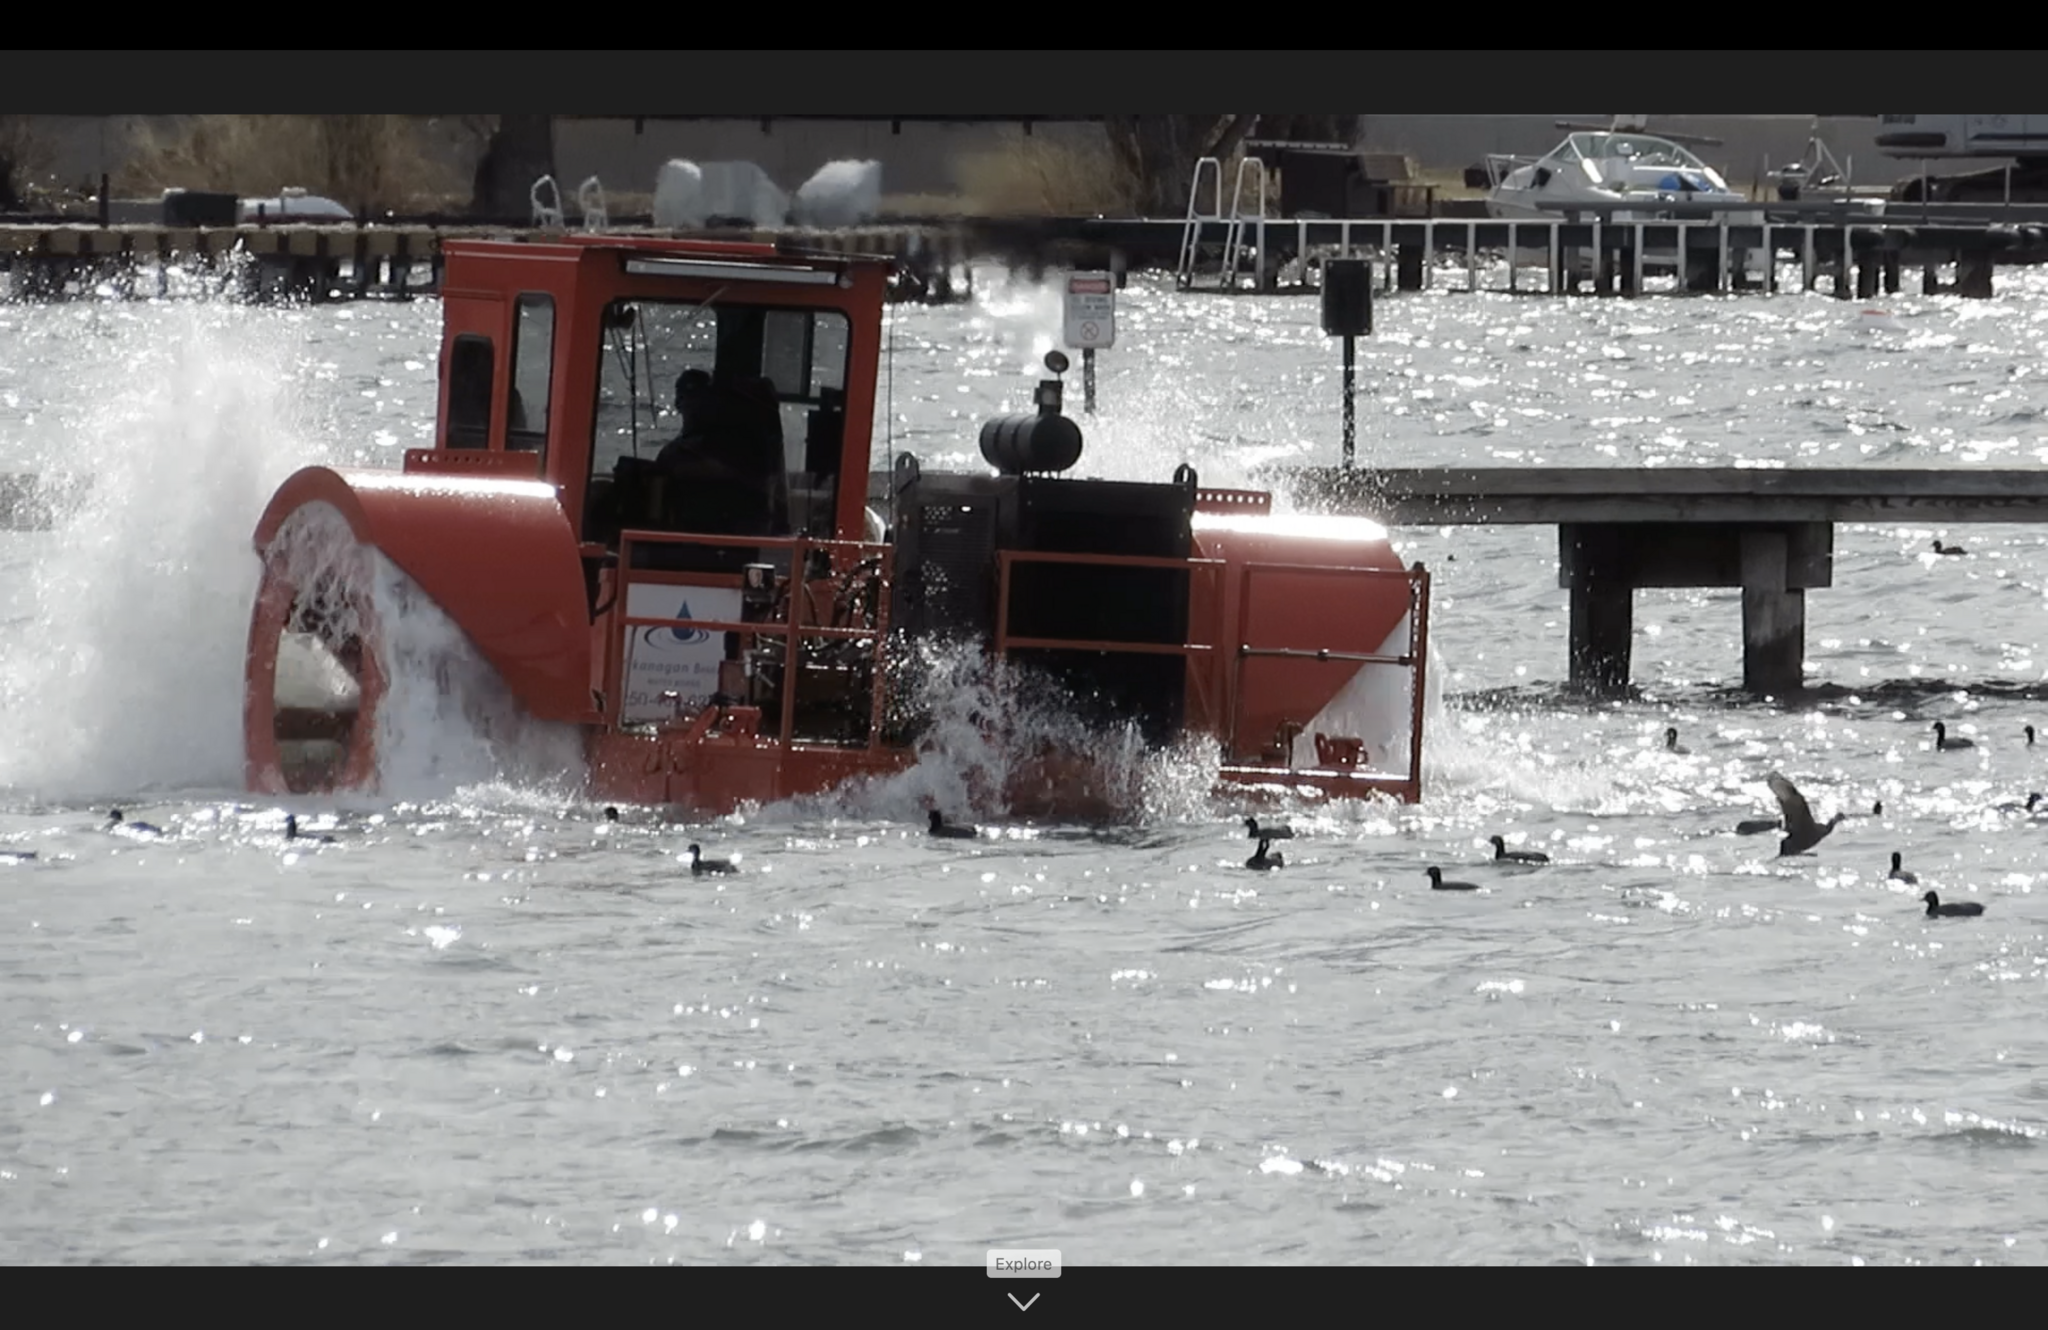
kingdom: Animalia
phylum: Chordata
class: Aves
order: Gruiformes
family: Rallidae
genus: Fulica
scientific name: Fulica americana
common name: American coot
